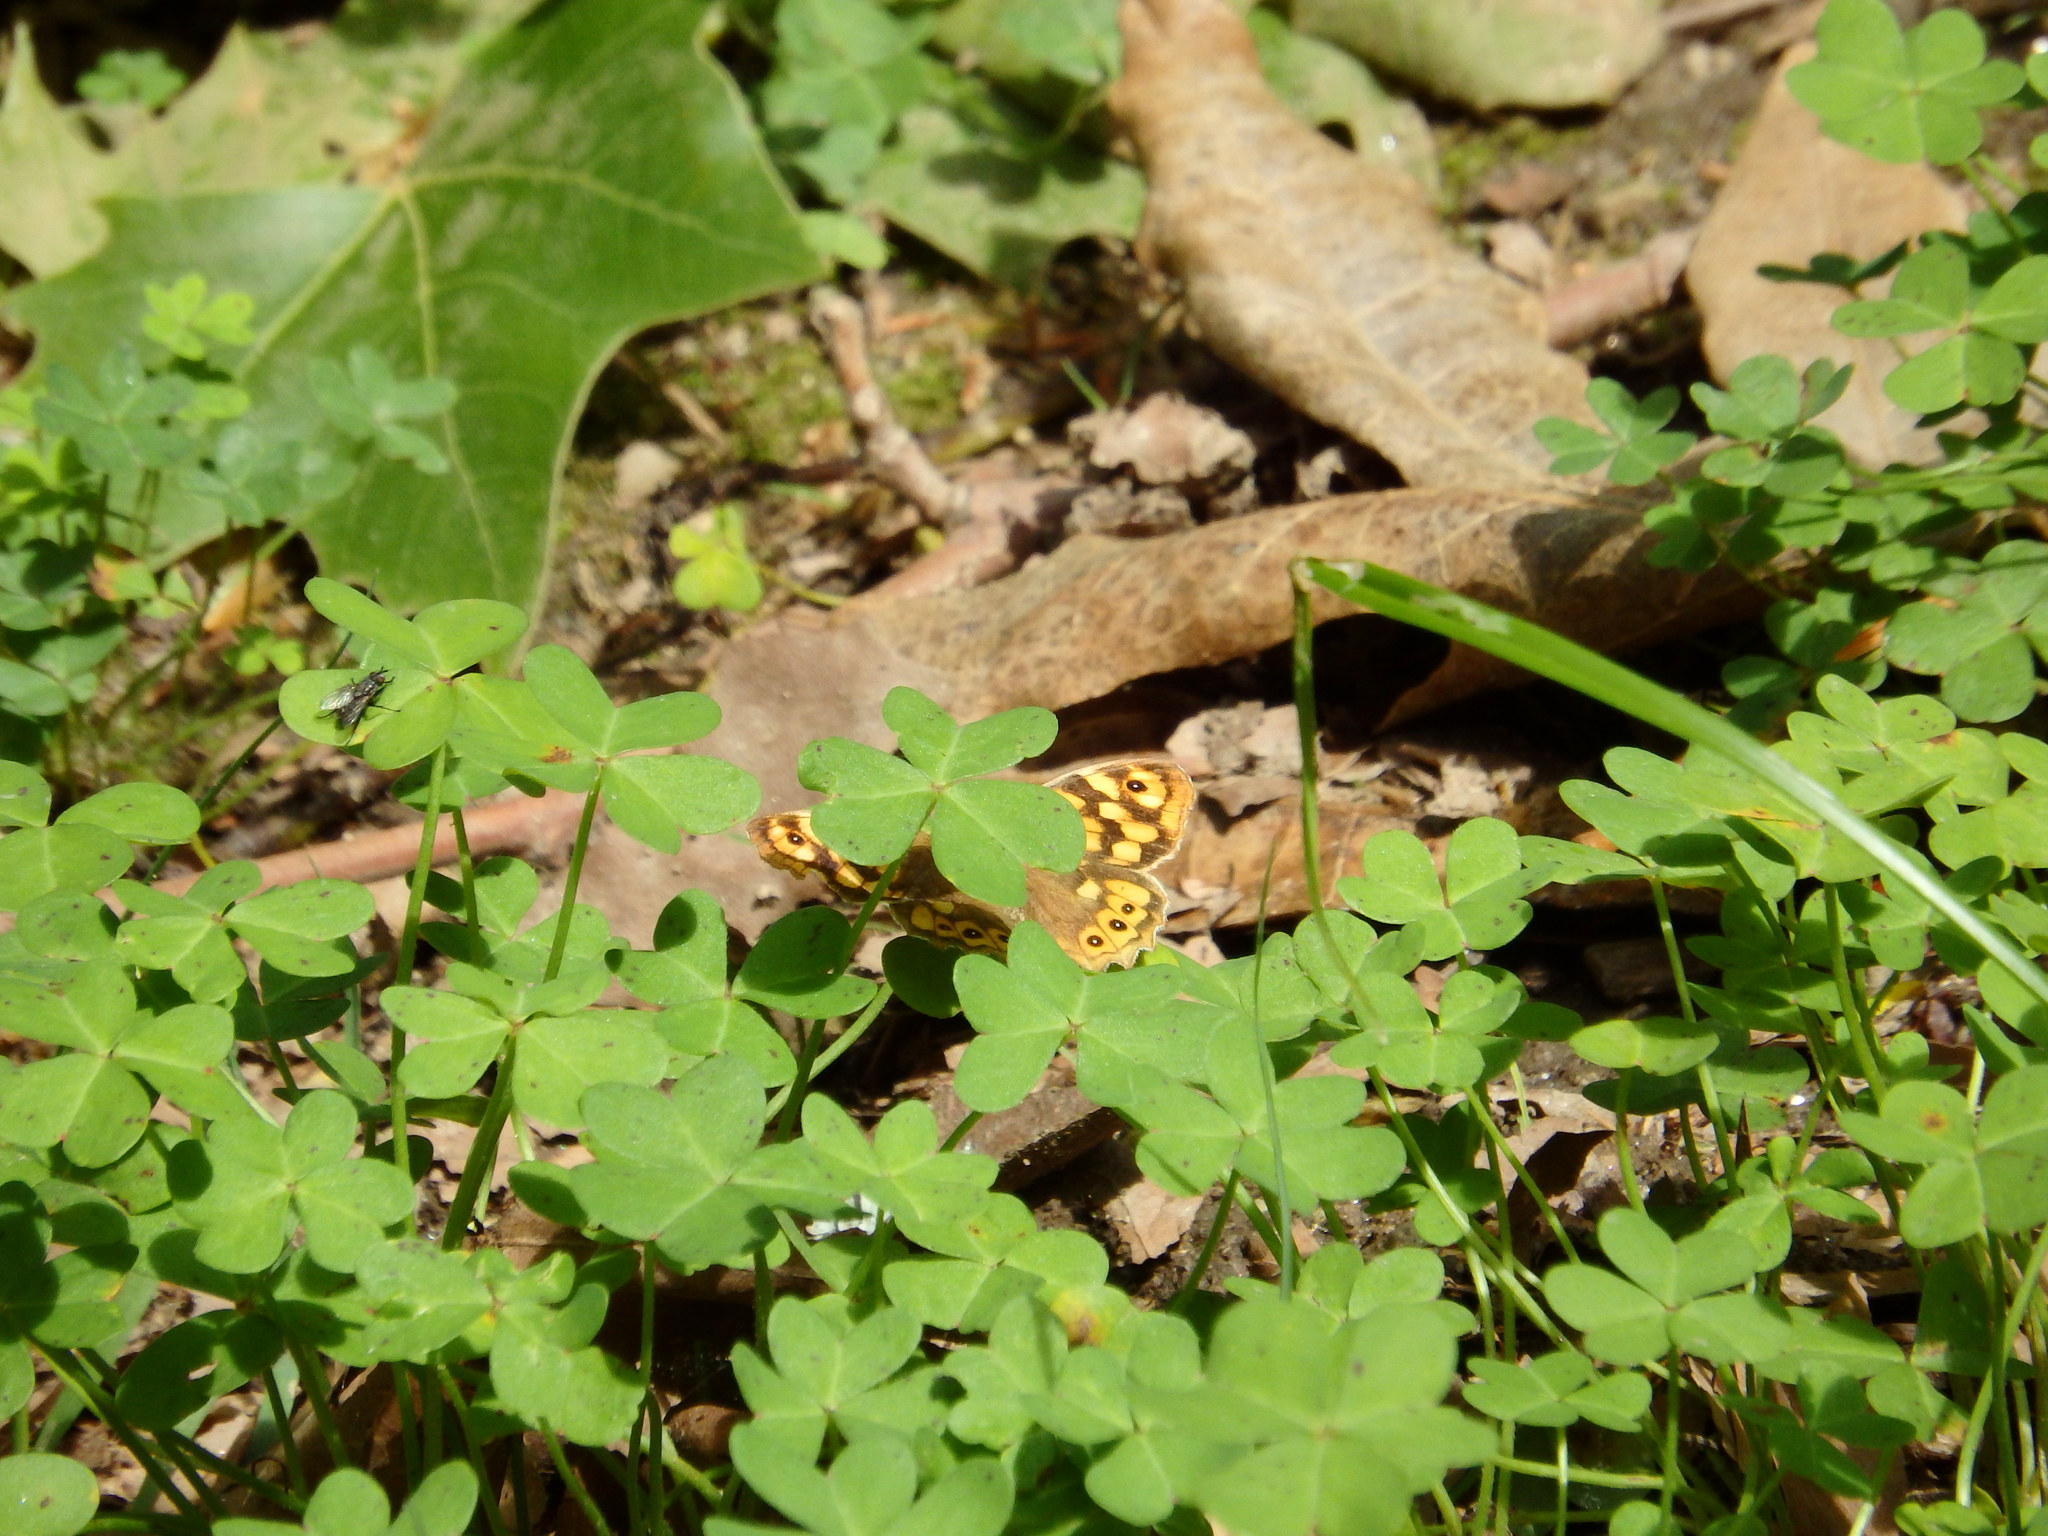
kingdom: Animalia
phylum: Arthropoda
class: Insecta
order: Lepidoptera
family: Nymphalidae
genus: Pararge
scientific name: Pararge aegeria
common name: Speckled wood
